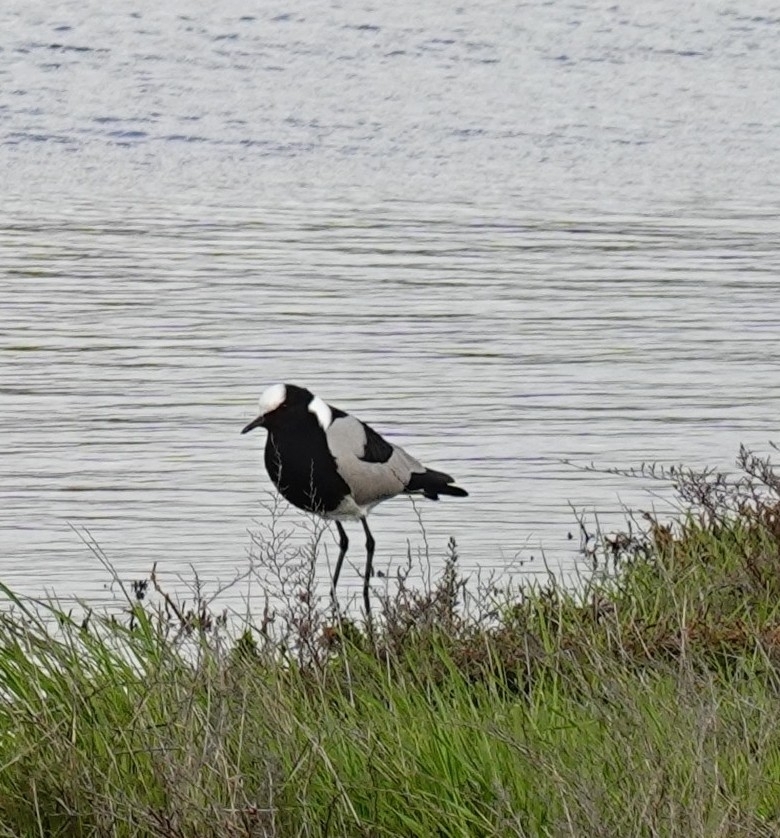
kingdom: Animalia
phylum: Chordata
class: Aves
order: Charadriiformes
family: Charadriidae
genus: Vanellus
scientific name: Vanellus armatus
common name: Blacksmith lapwing
